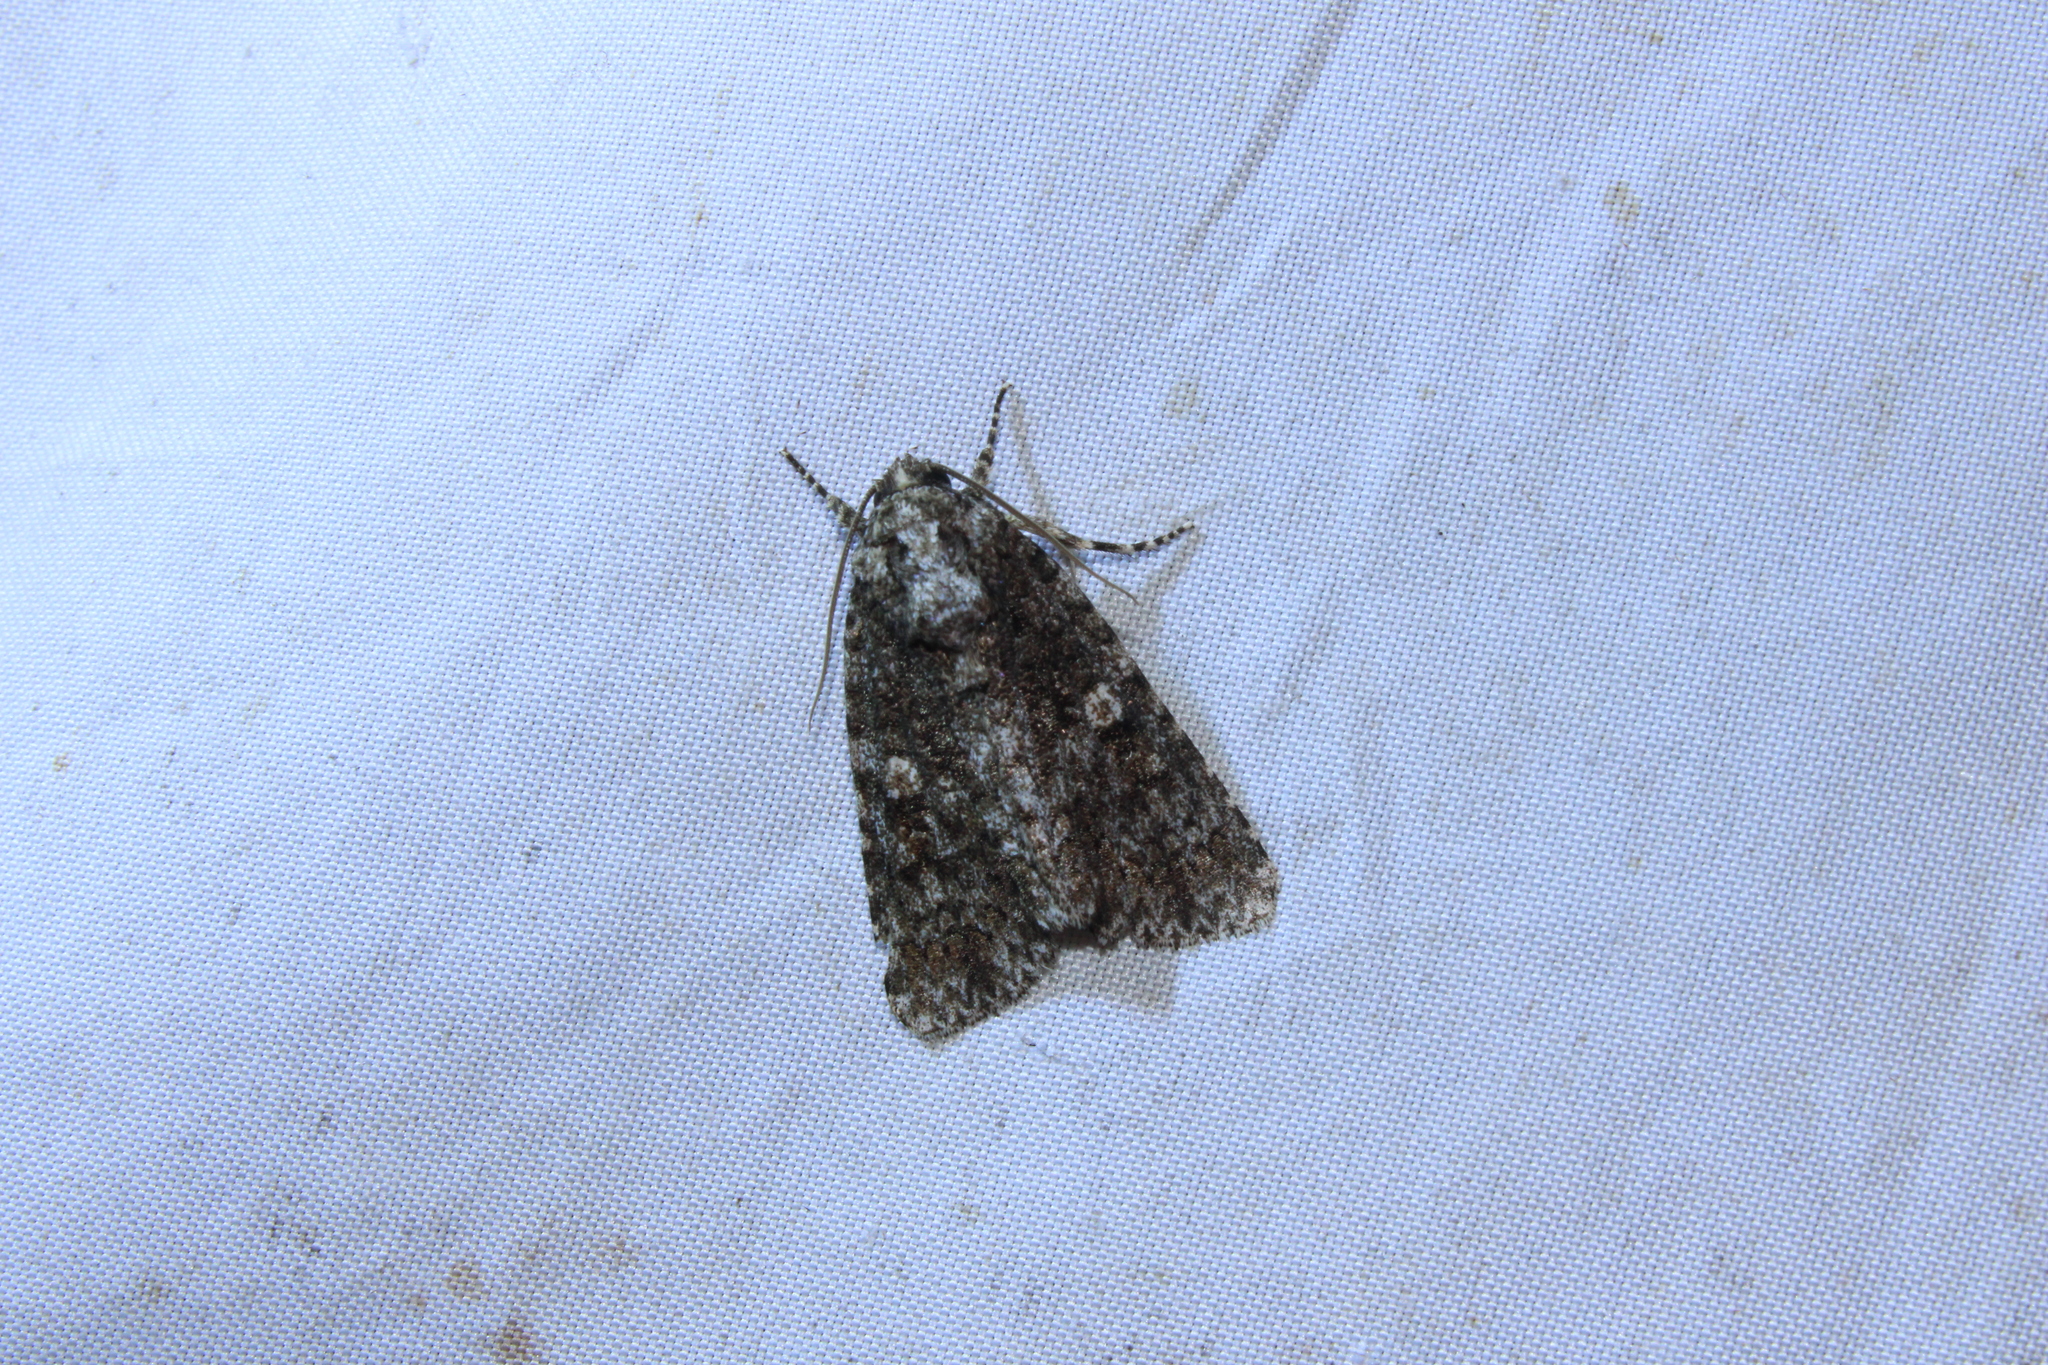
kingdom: Animalia
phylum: Arthropoda
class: Insecta
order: Lepidoptera
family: Noctuidae
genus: Acronicta
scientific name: Acronicta afflicta
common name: Afflicted dagger moth
